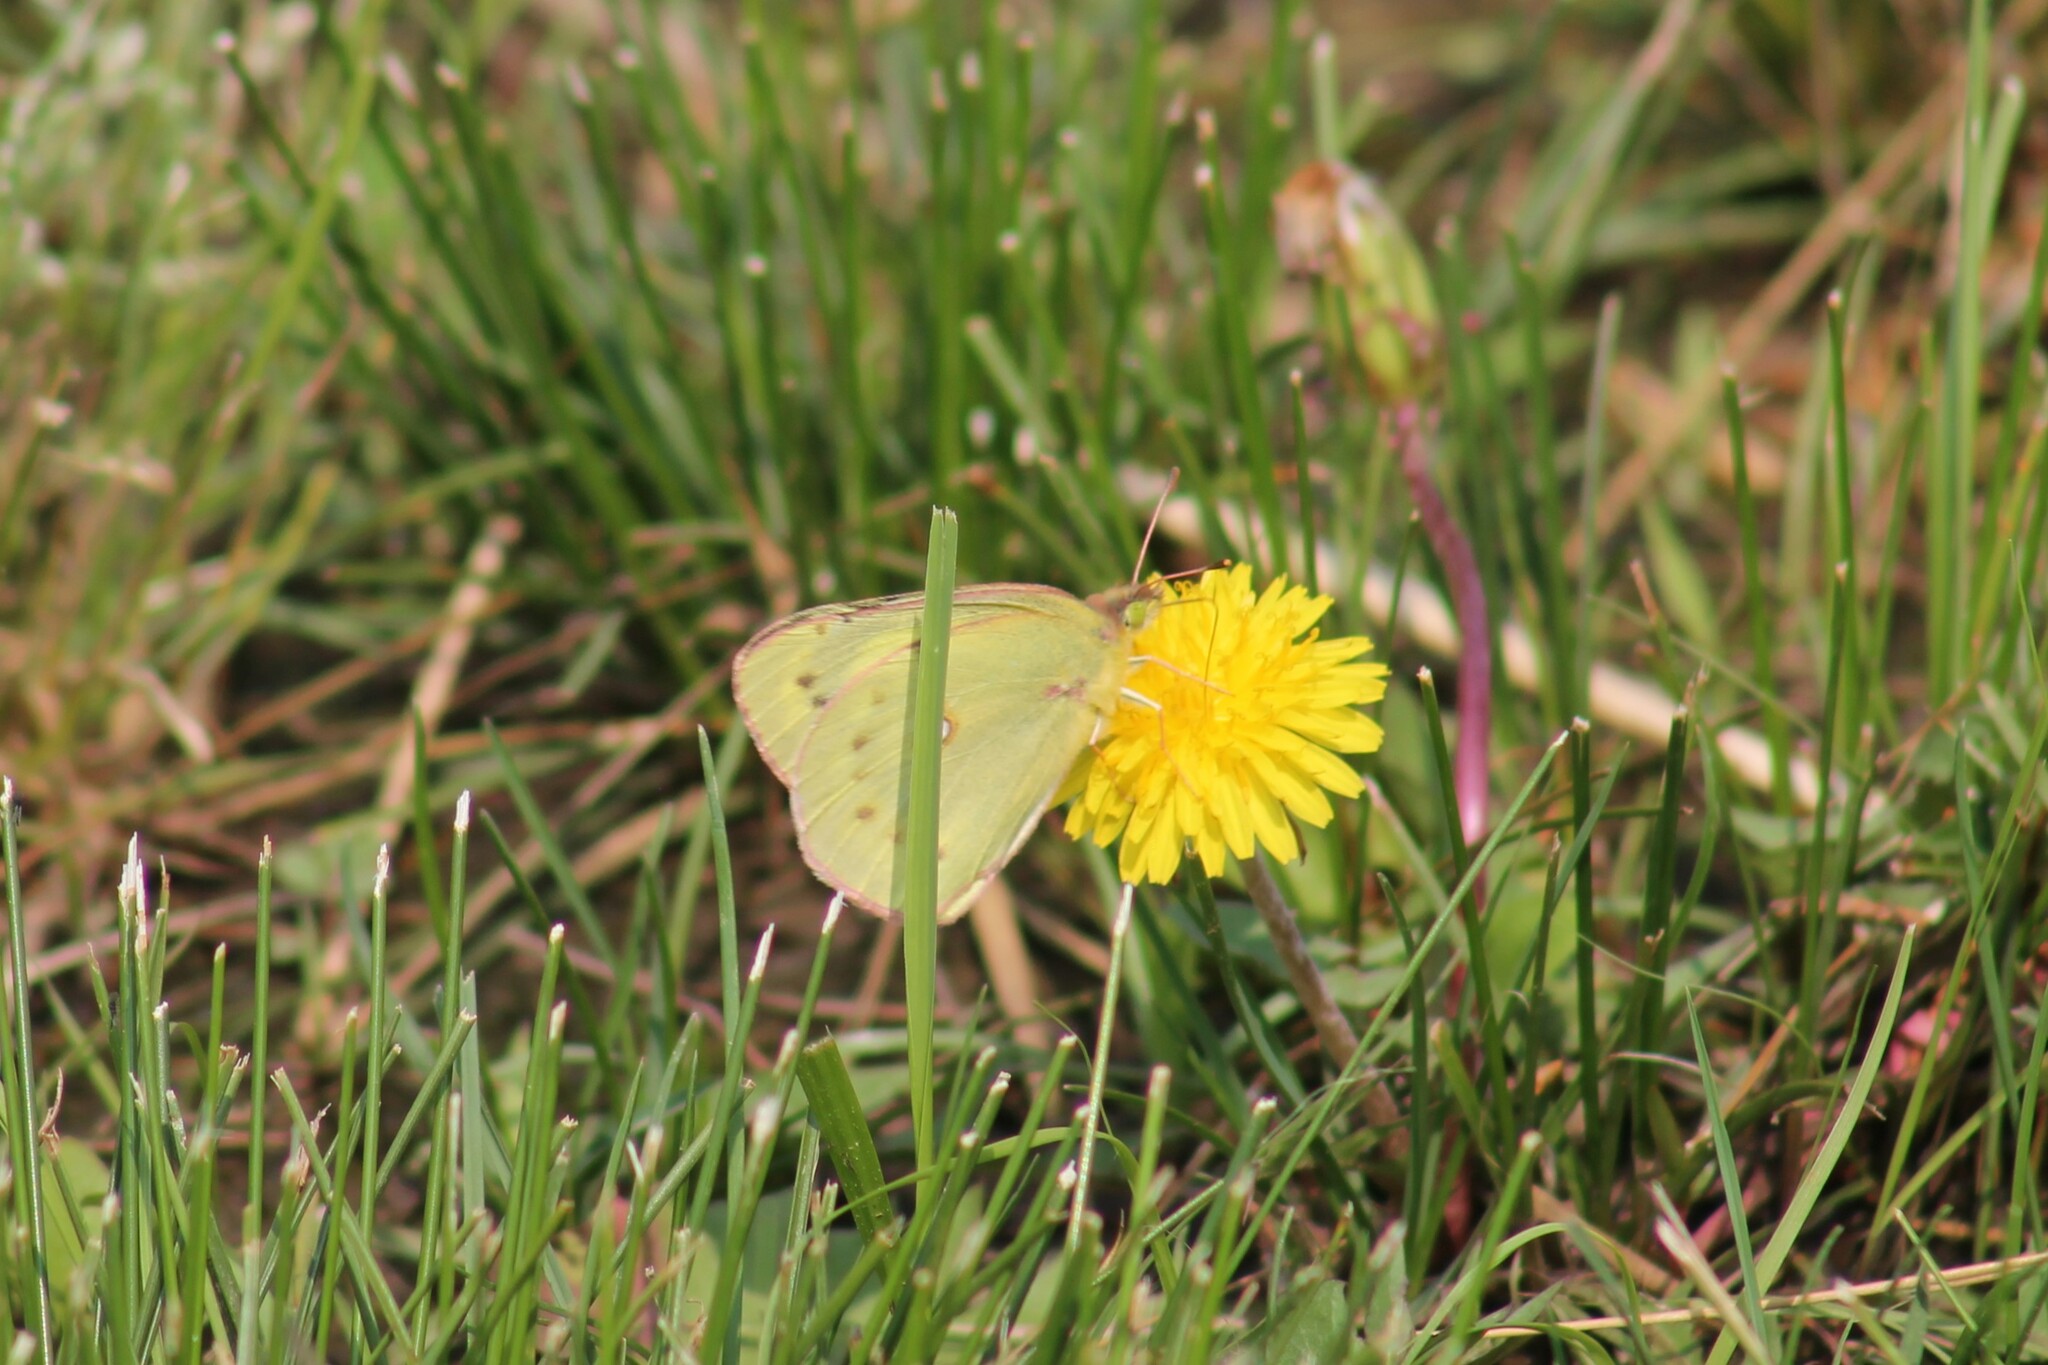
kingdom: Animalia
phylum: Arthropoda
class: Insecta
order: Lepidoptera
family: Pieridae
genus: Colias
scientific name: Colias eurytheme
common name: Alfalfa butterfly
